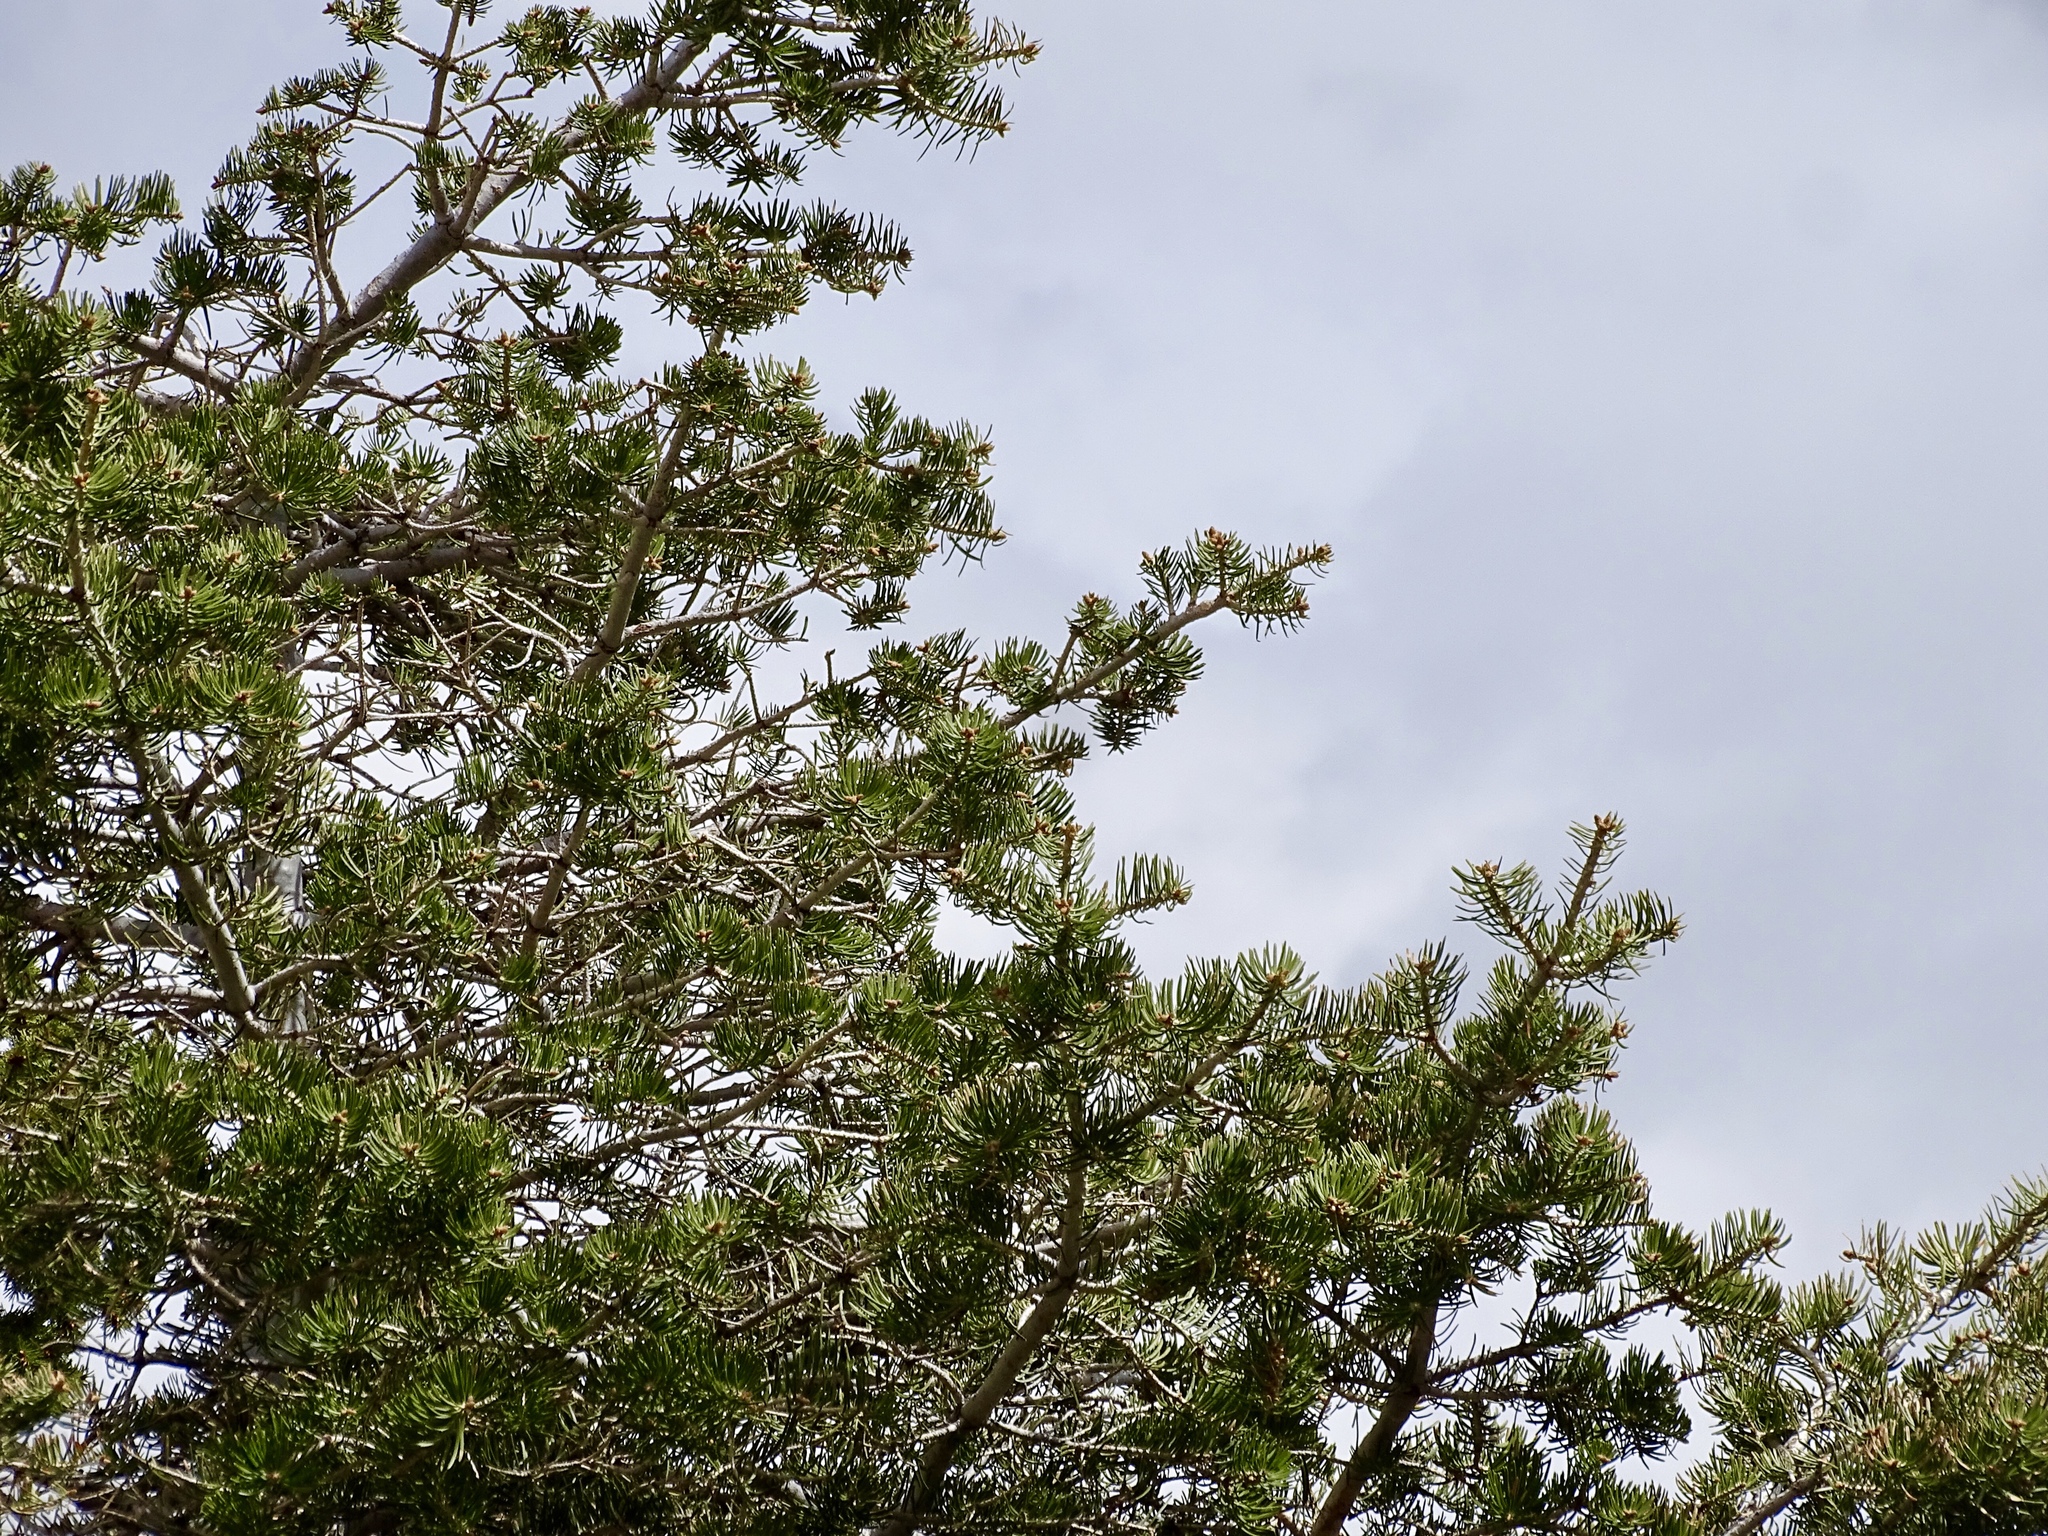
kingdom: Plantae
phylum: Tracheophyta
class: Pinopsida
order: Pinales
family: Pinaceae
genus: Abies
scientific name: Abies concolor
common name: Colorado fir
